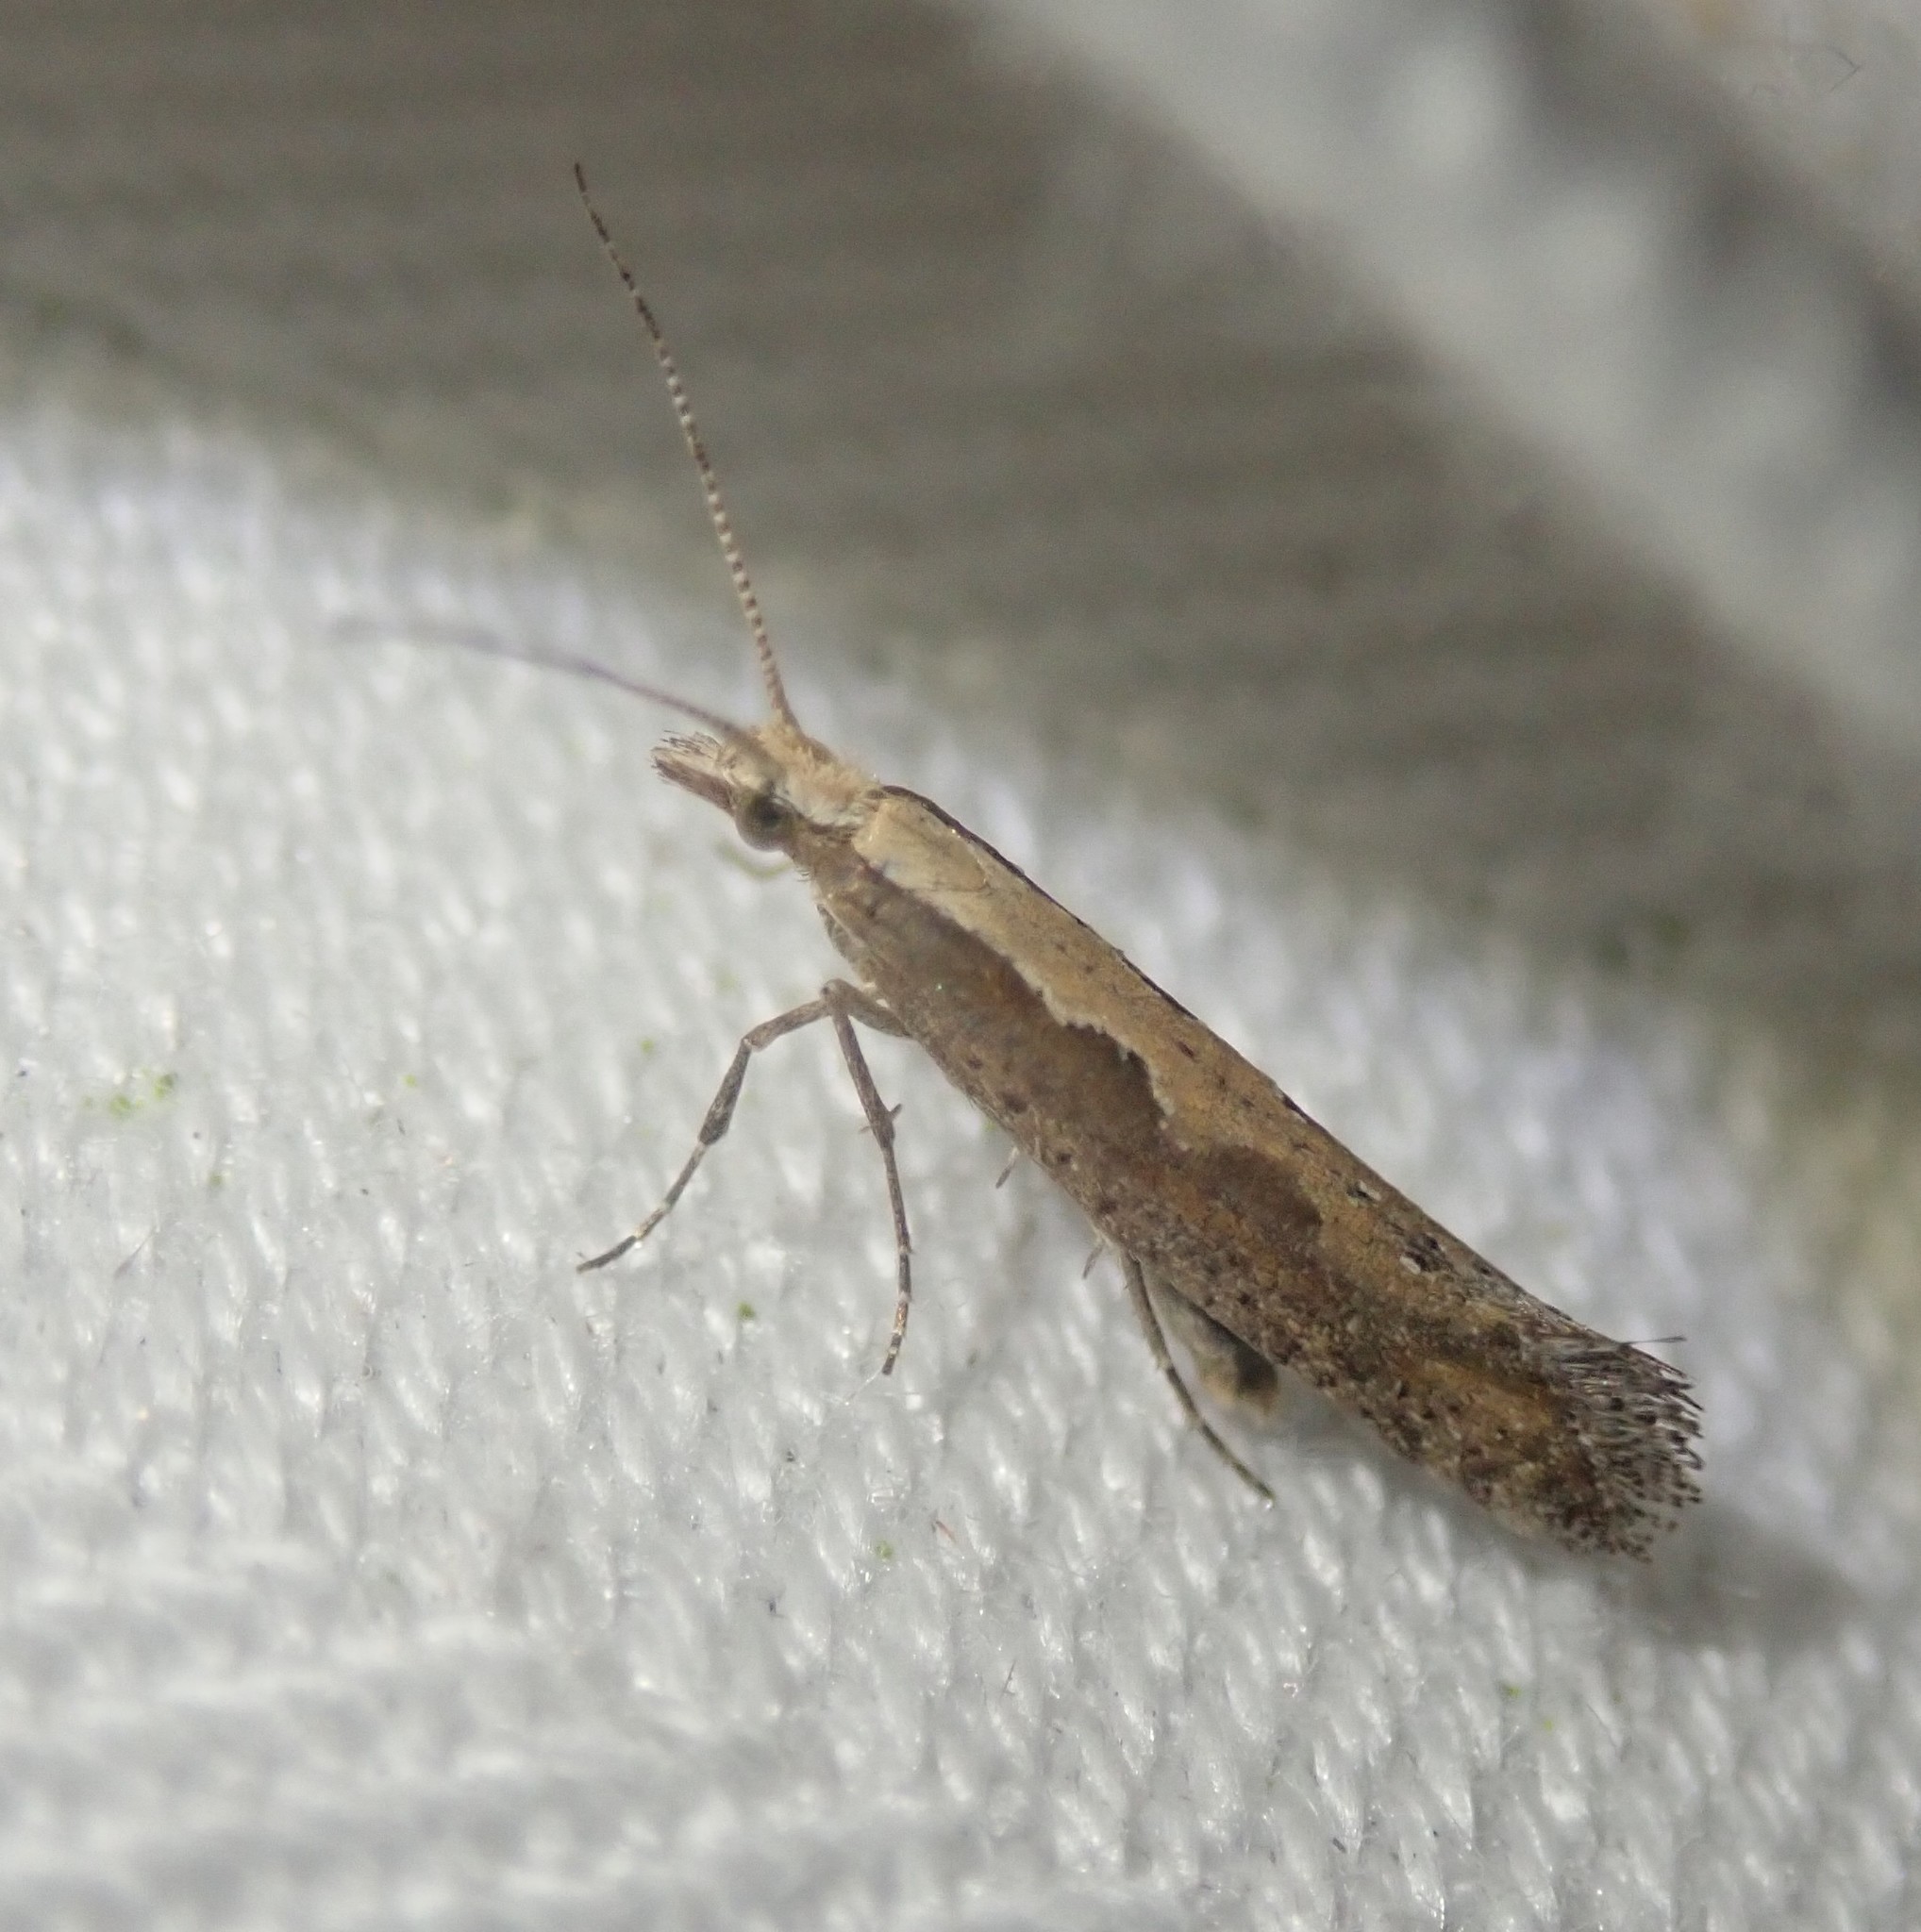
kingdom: Animalia
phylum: Arthropoda
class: Insecta
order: Lepidoptera
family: Plutellidae
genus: Plutella
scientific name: Plutella xylostella
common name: Diamond-back moth
